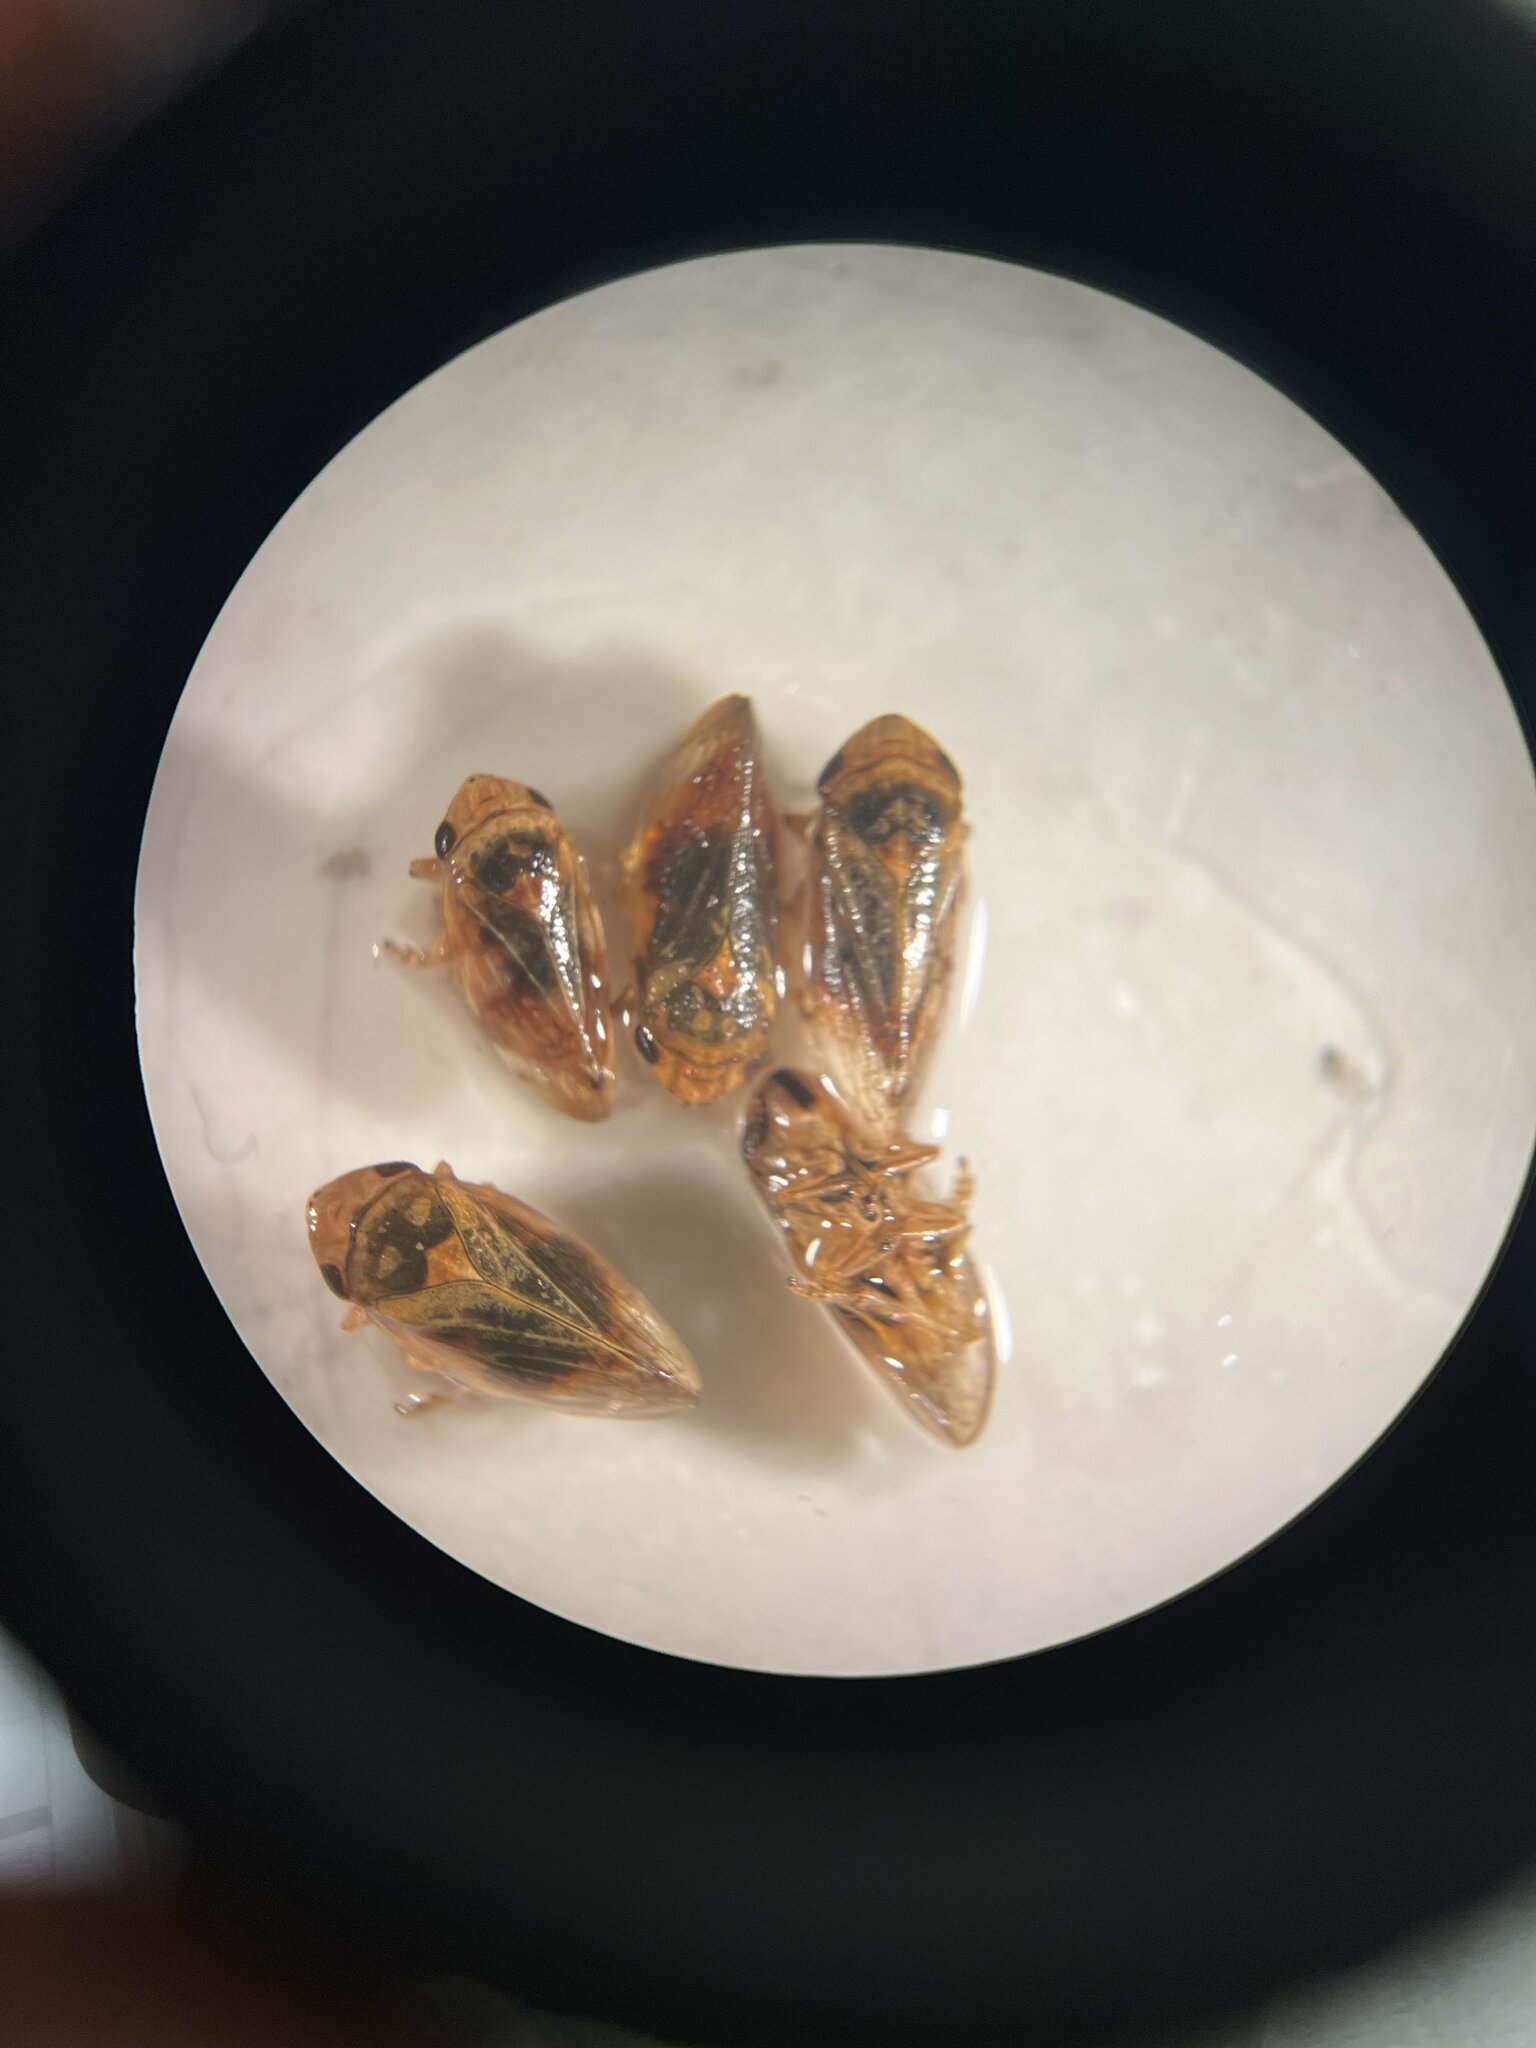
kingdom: Animalia
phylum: Arthropoda
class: Insecta
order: Hemiptera
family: Aphrophoridae
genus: Philaenus
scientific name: Philaenus spumarius
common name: Meadow spittlebug
